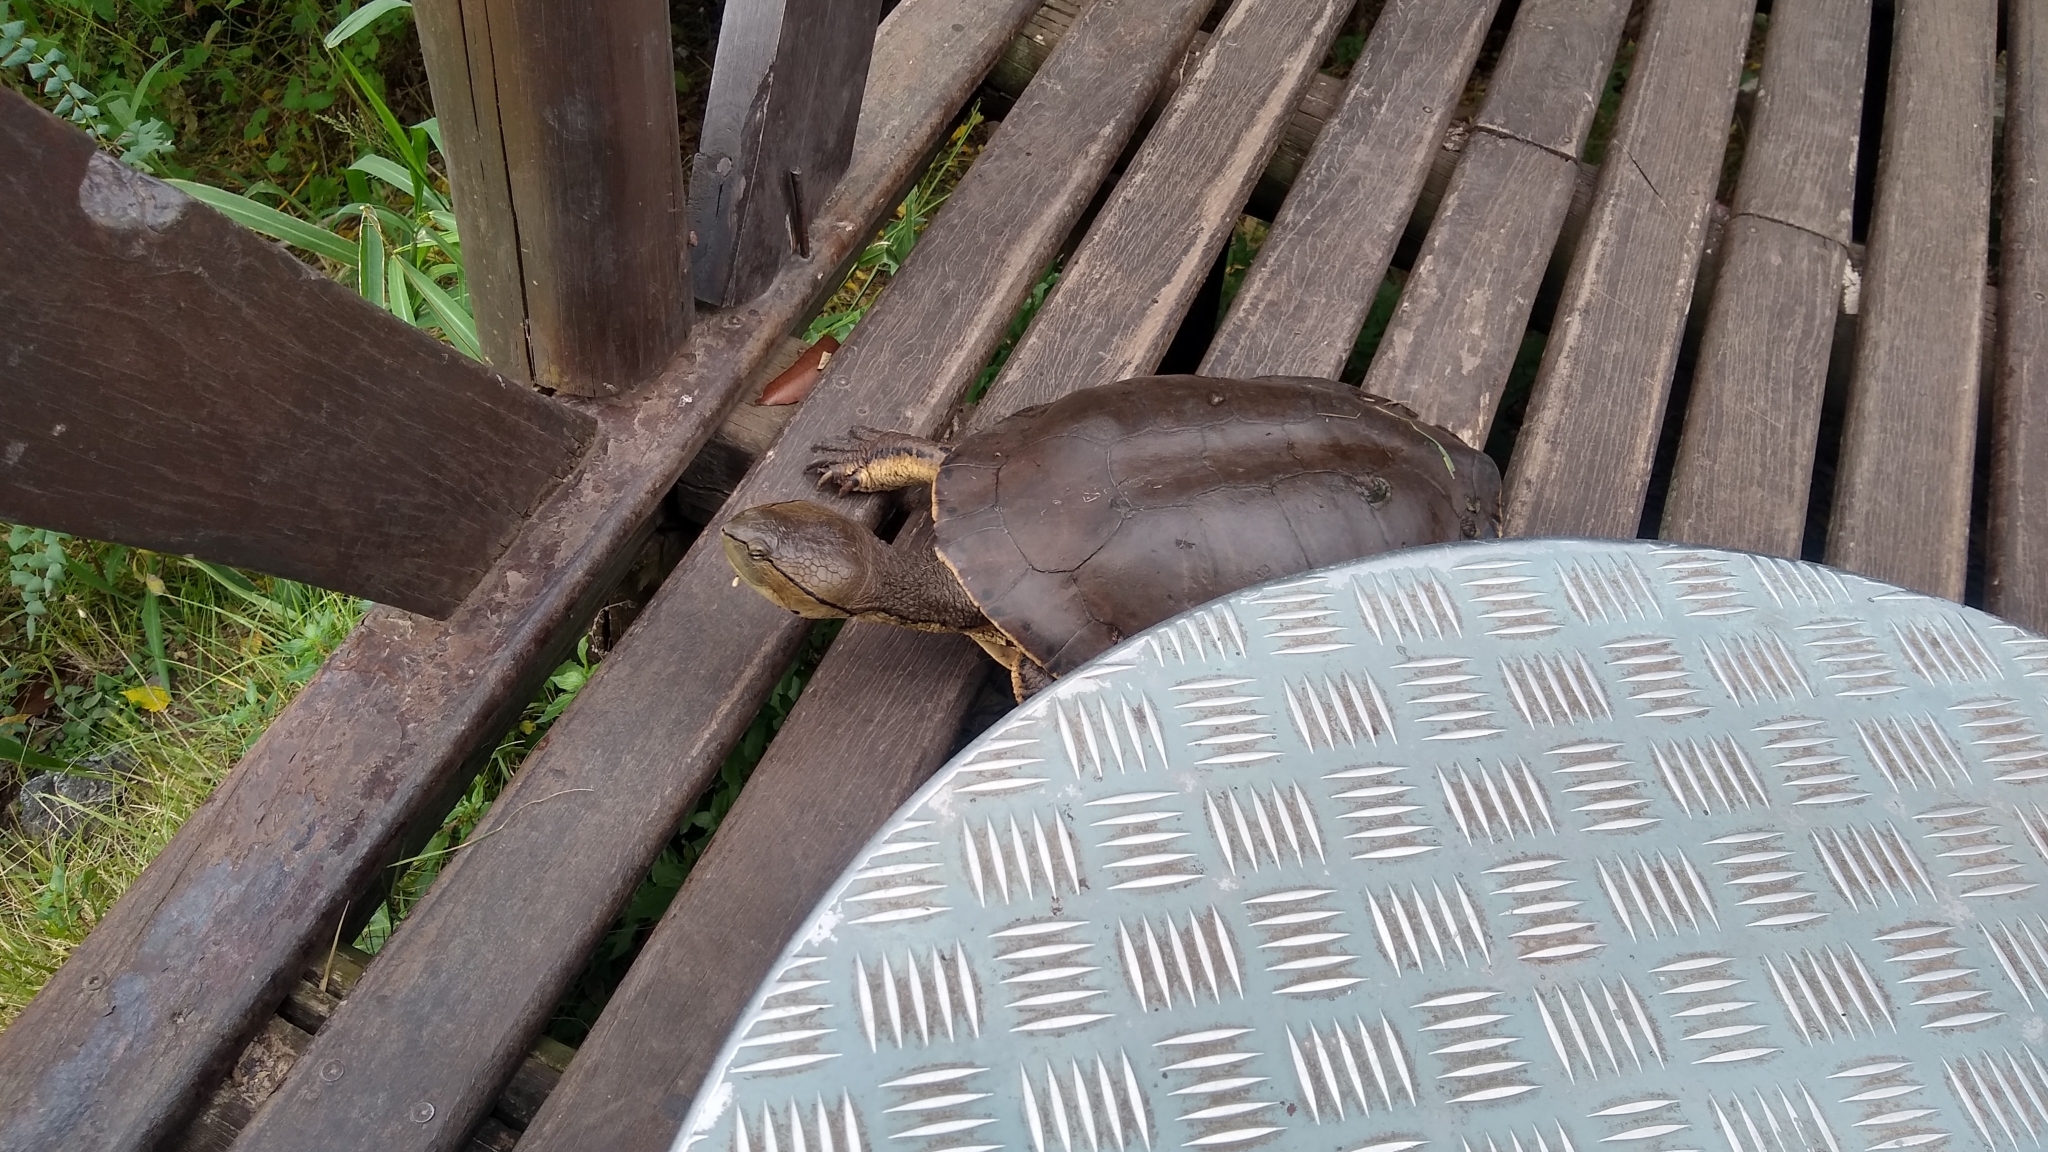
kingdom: Animalia
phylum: Chordata
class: Testudines
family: Chelidae
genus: Phrynops
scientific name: Phrynops hilarii
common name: Side-necked turtle of saint hillaire
